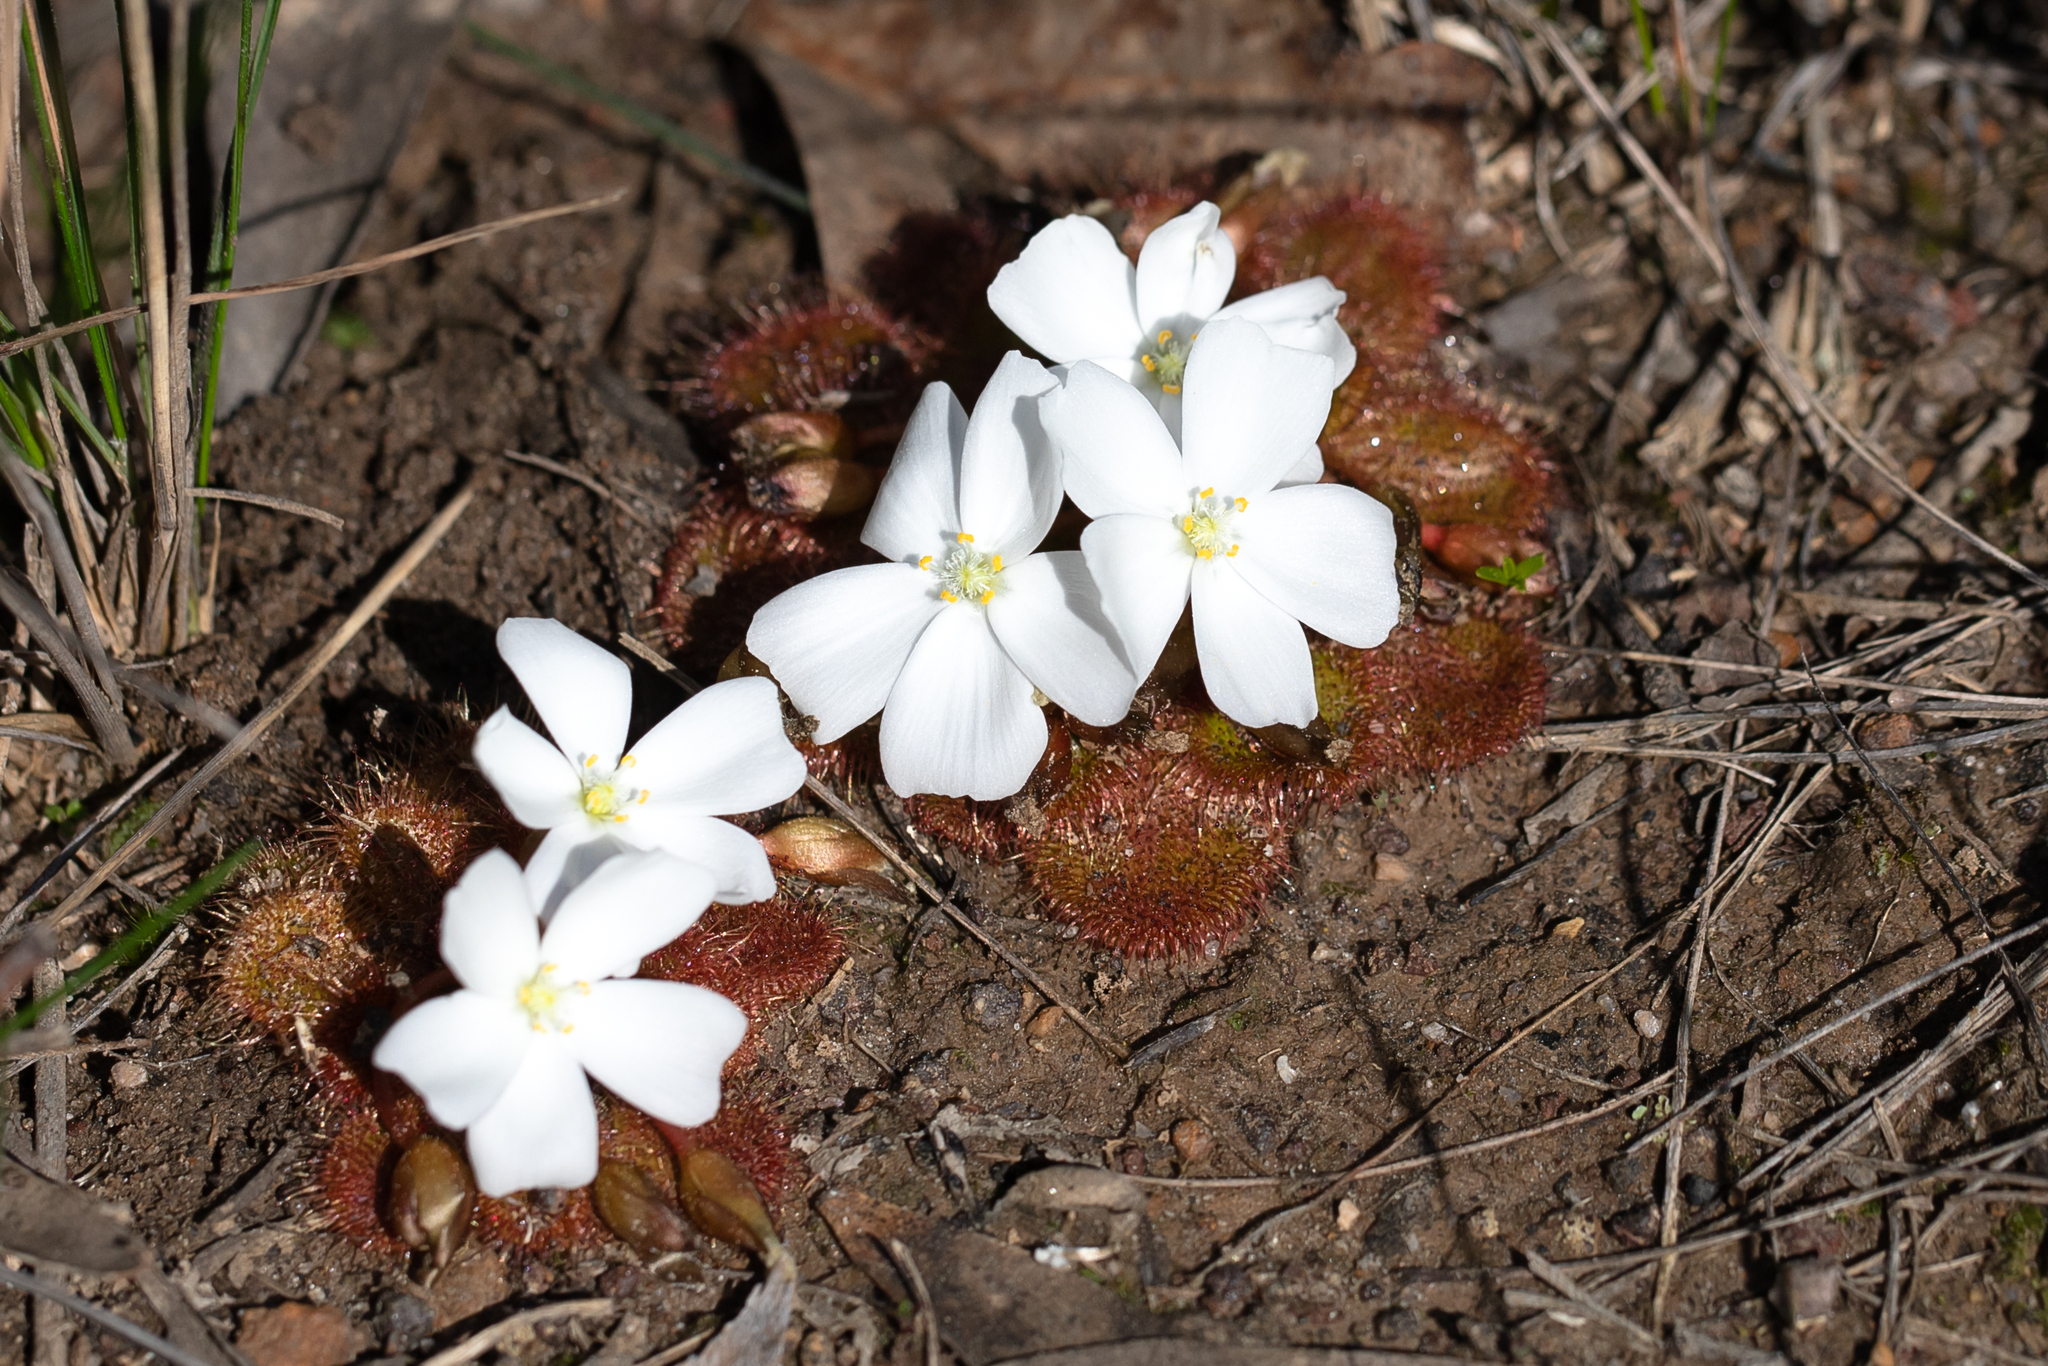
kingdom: Plantae
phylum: Tracheophyta
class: Magnoliopsida
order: Caryophyllales
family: Droseraceae
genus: Drosera
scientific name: Drosera whittakeri
